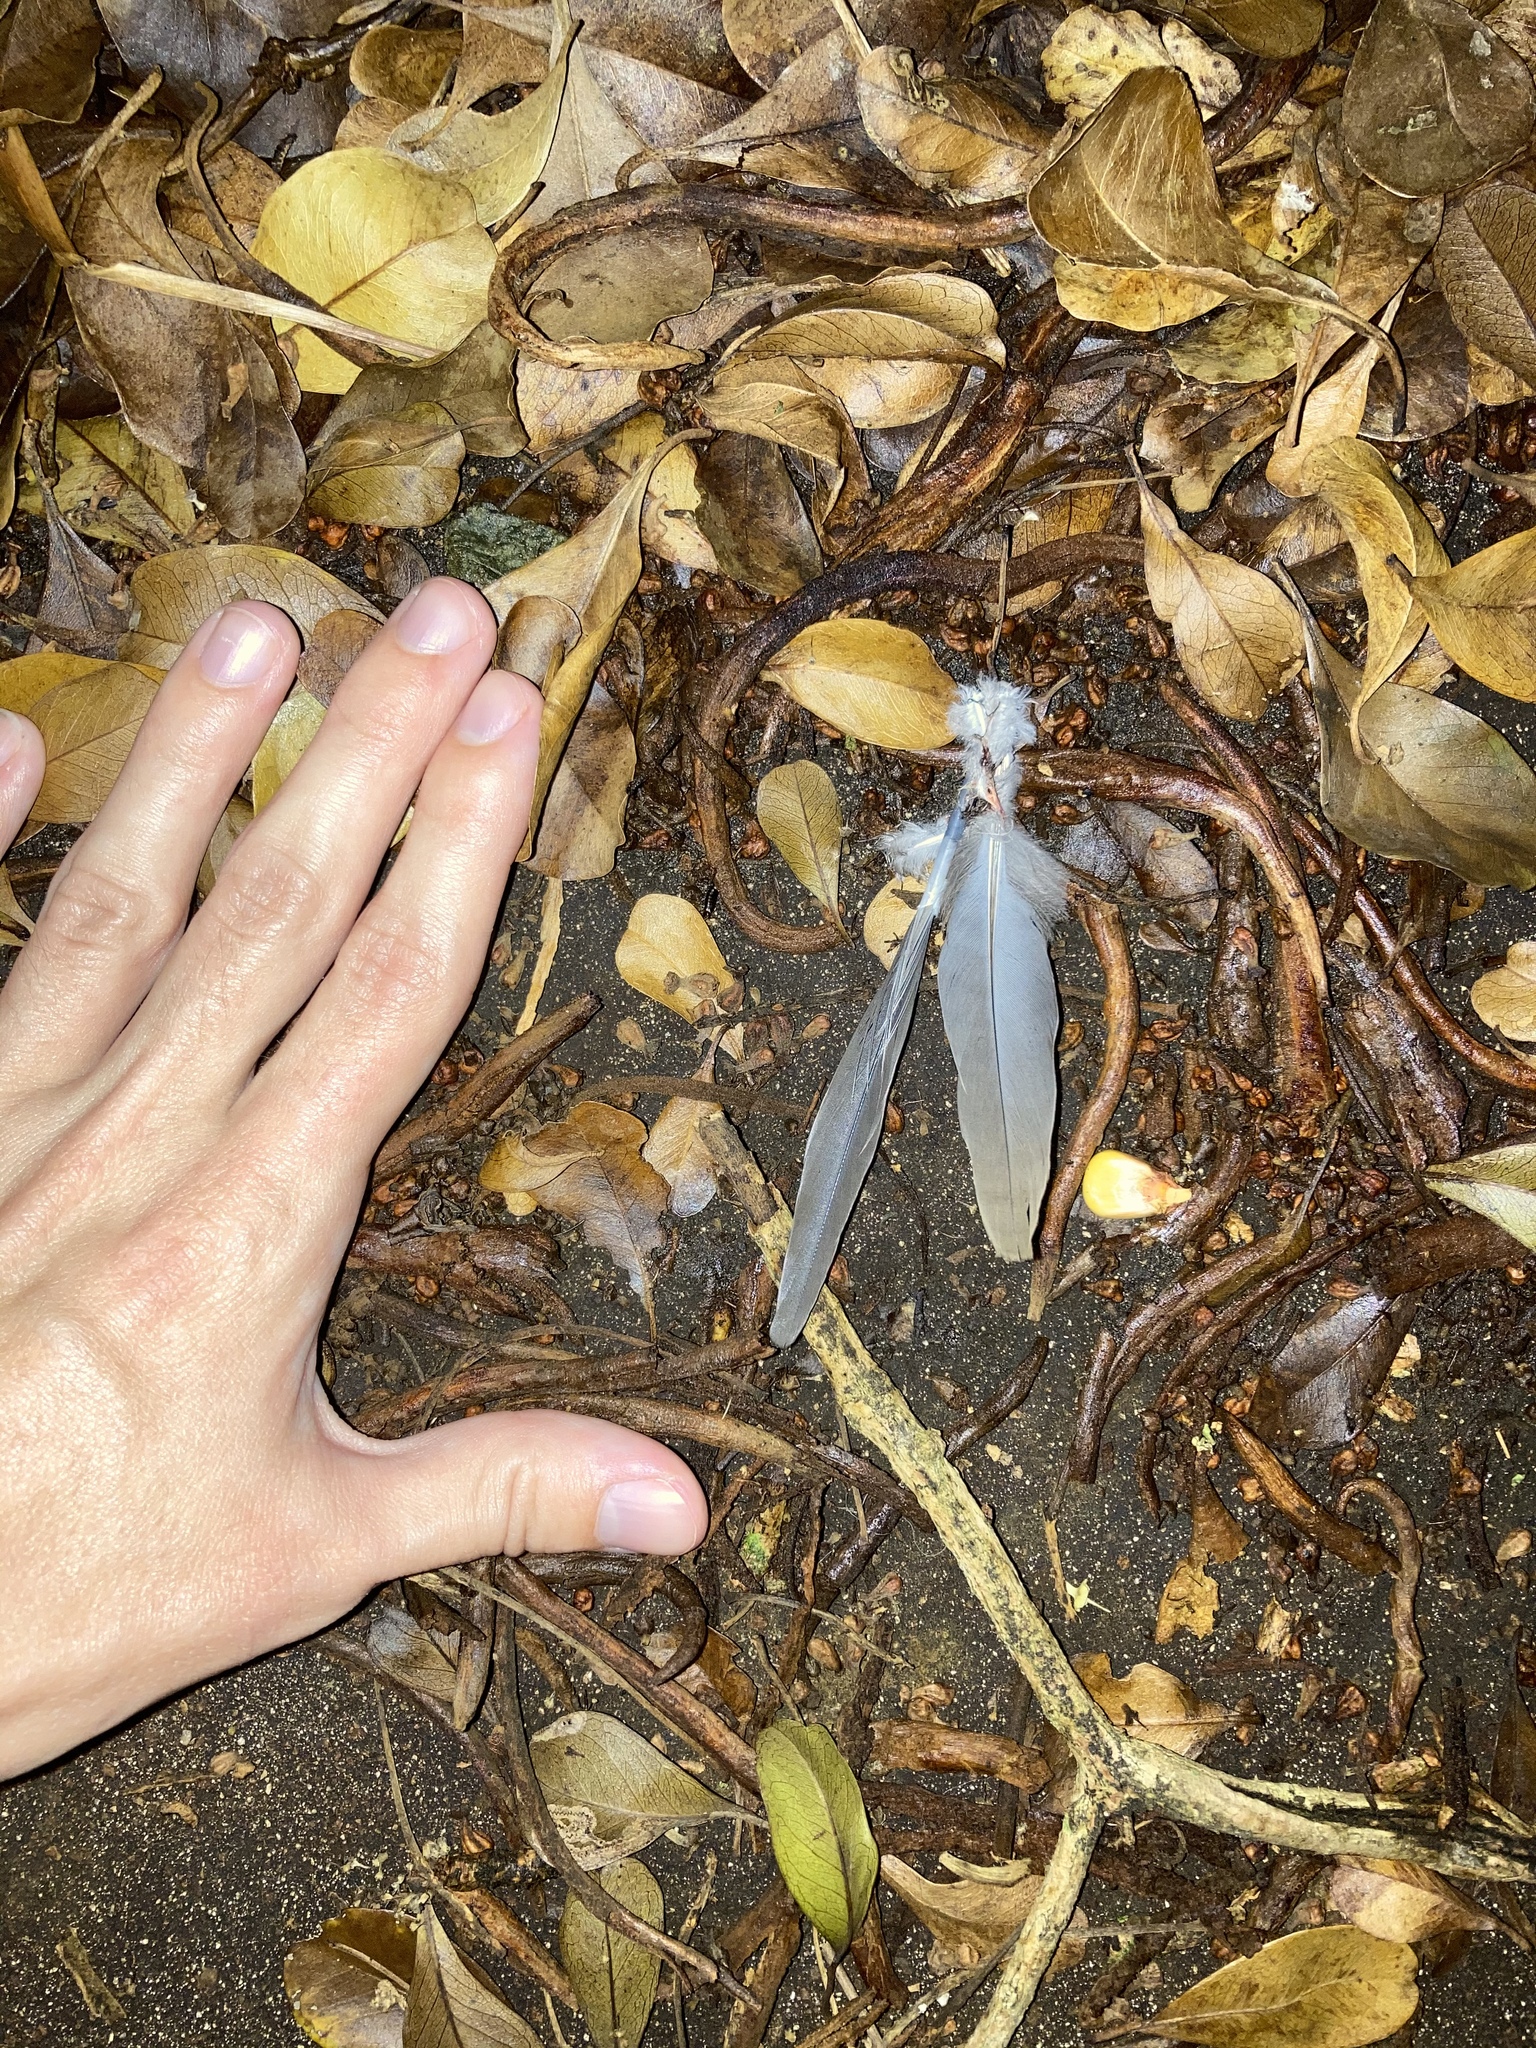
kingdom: Animalia
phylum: Chordata
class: Aves
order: Columbiformes
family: Columbidae
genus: Zenaida
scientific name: Zenaida macroura
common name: Mourning dove
